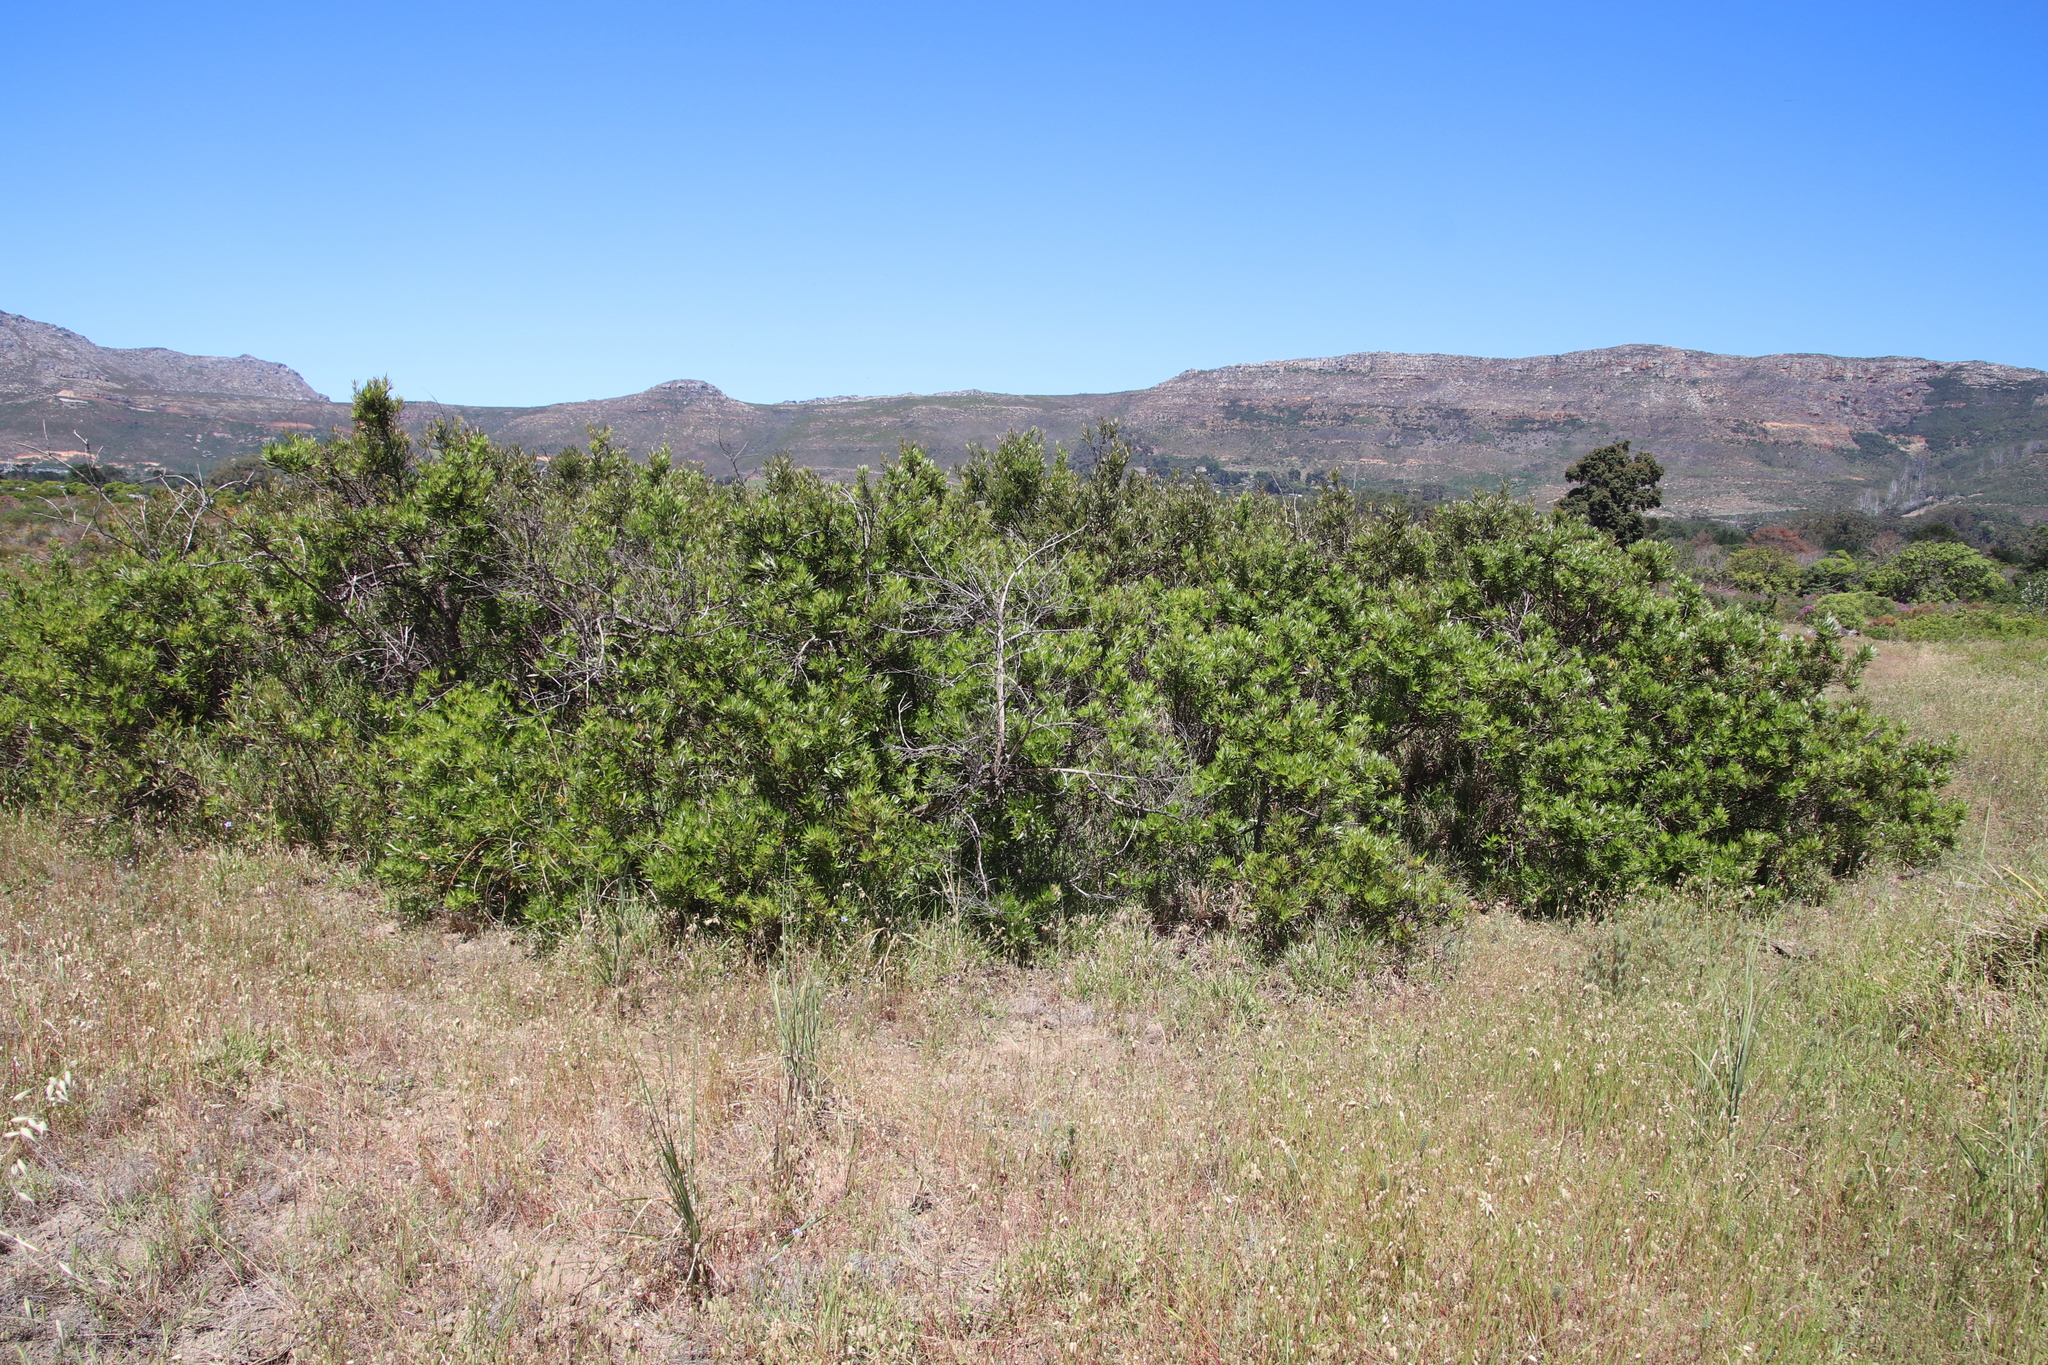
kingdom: Plantae
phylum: Tracheophyta
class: Magnoliopsida
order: Sapindales
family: Anacardiaceae
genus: Searsia
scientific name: Searsia angustifolia
